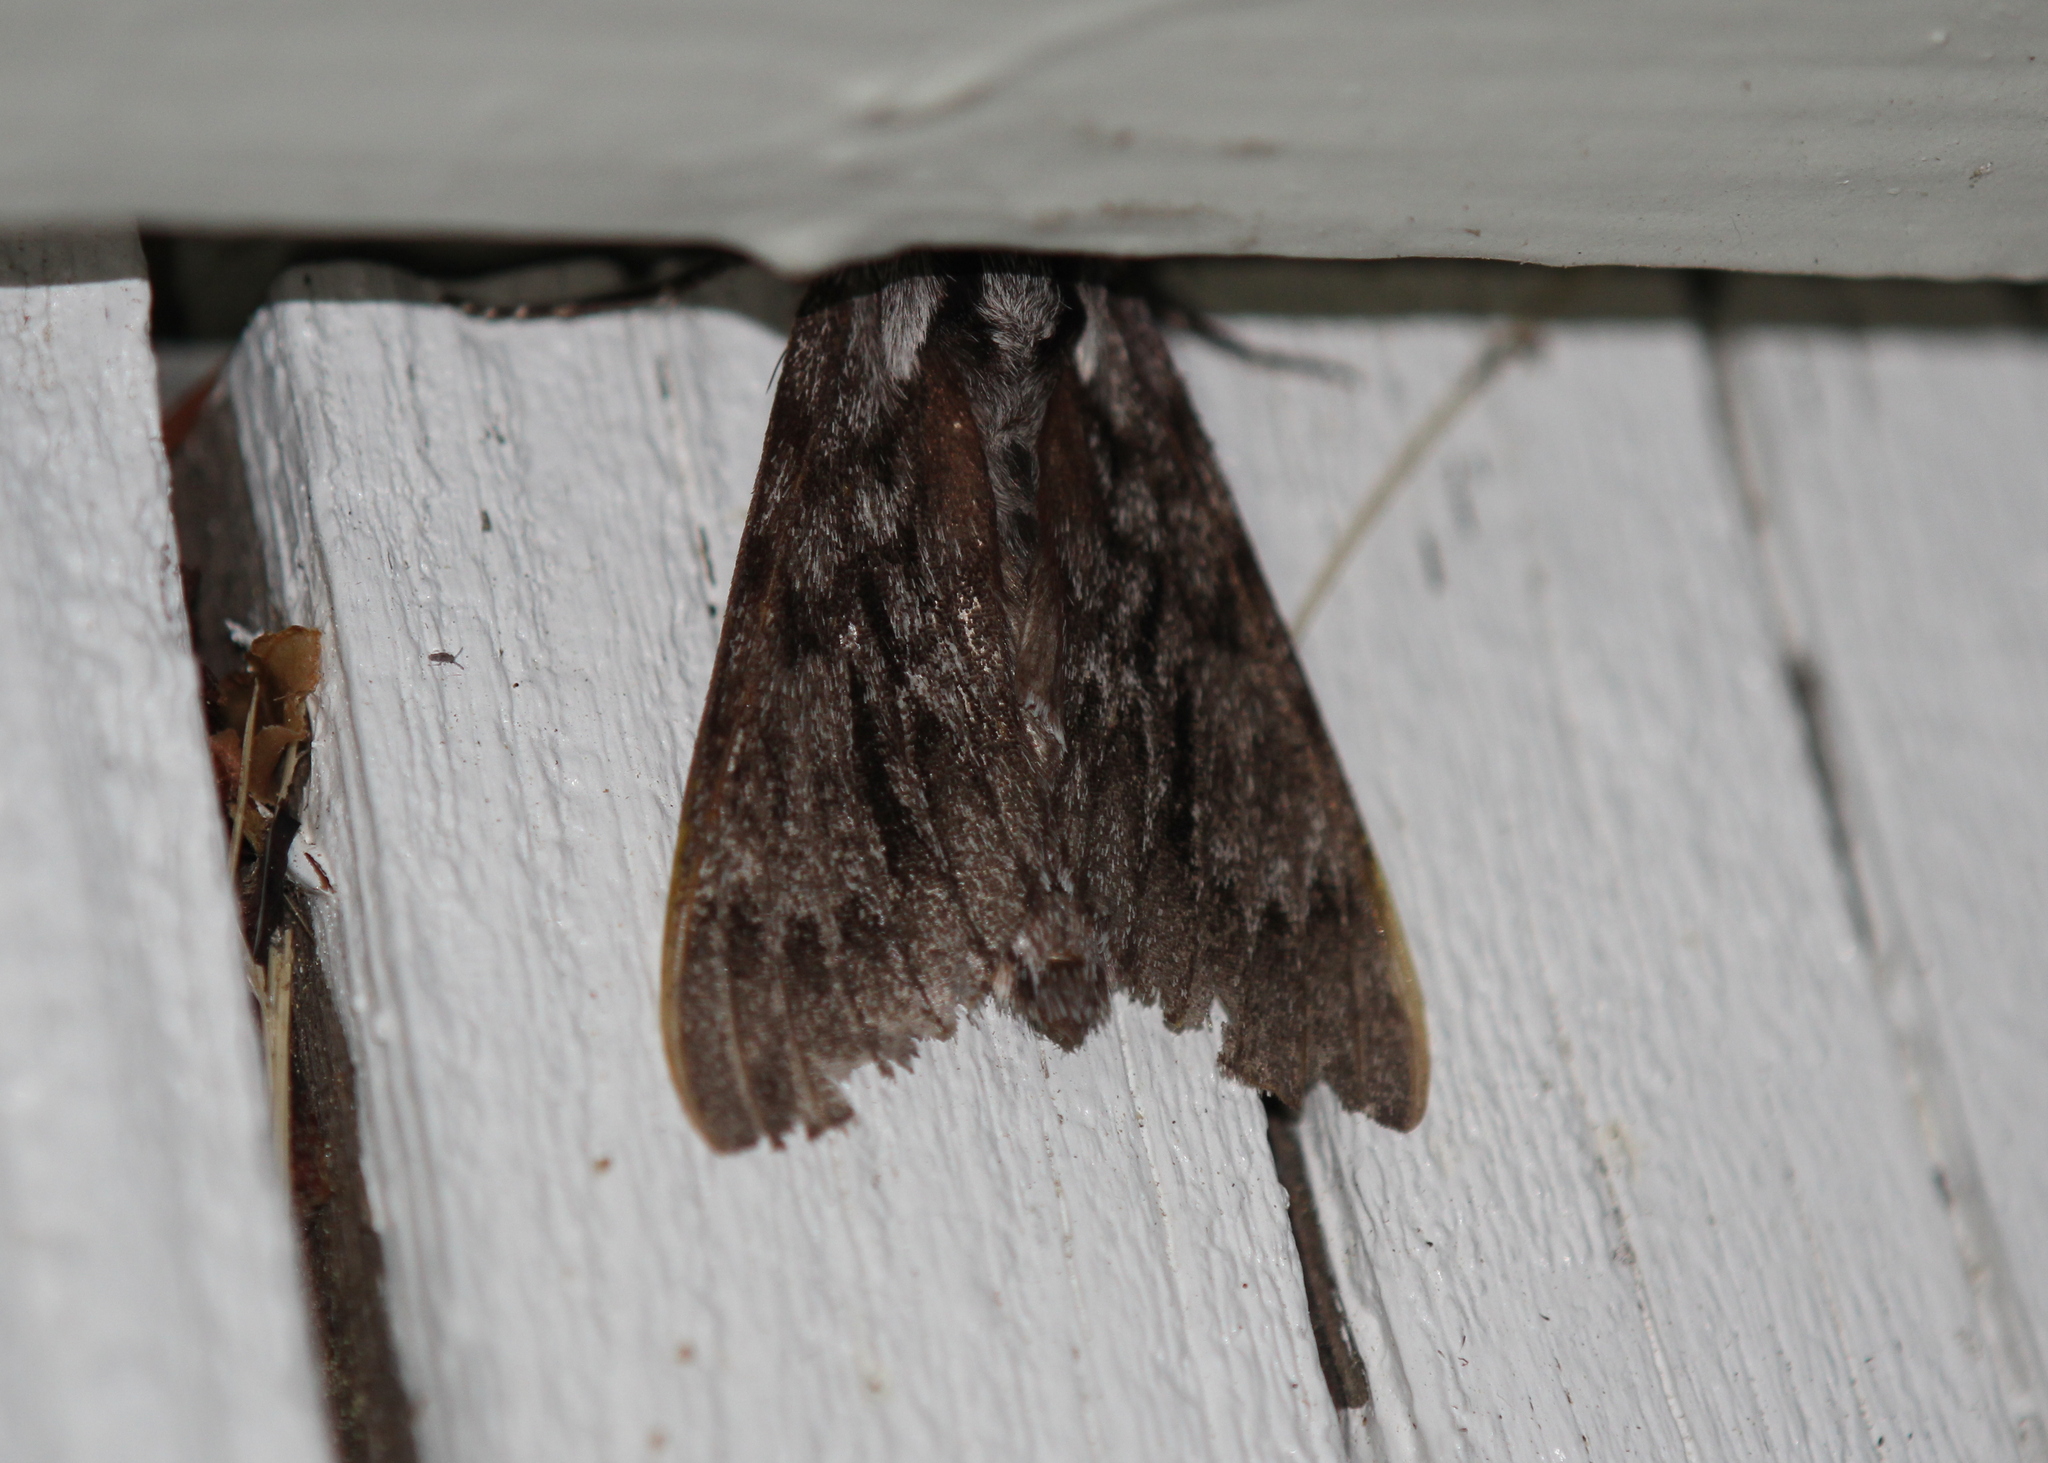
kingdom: Animalia
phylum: Arthropoda
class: Insecta
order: Lepidoptera
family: Sphingidae
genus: Lapara
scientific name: Lapara bombycoides
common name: Northern pine sphinx
